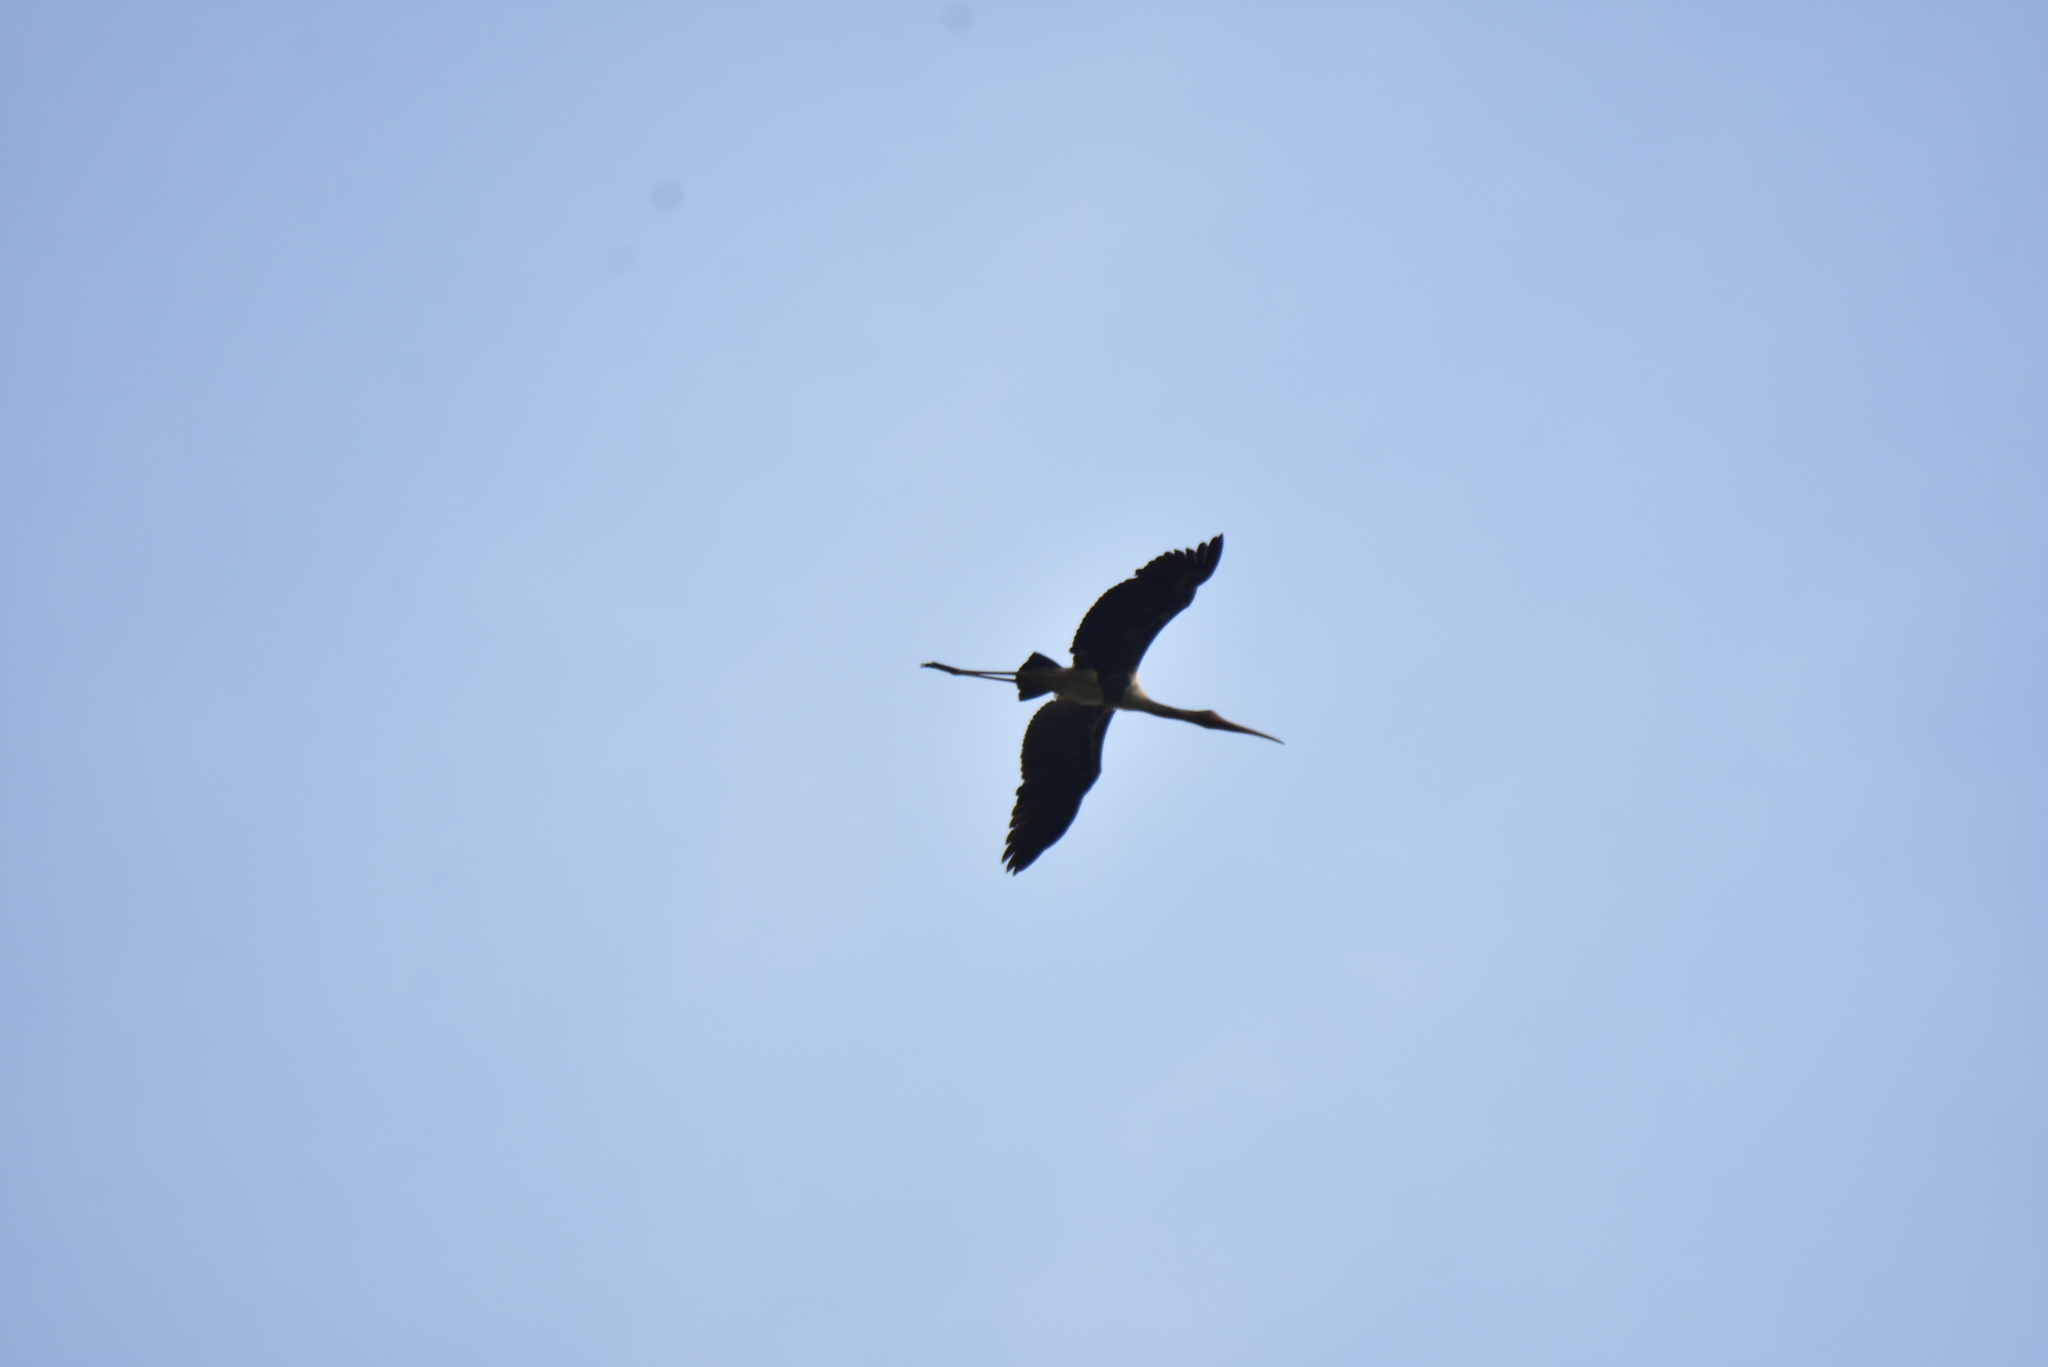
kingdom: Animalia
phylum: Chordata
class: Aves
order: Ciconiiformes
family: Ciconiidae
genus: Mycteria
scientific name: Mycteria leucocephala
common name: Painted stork
